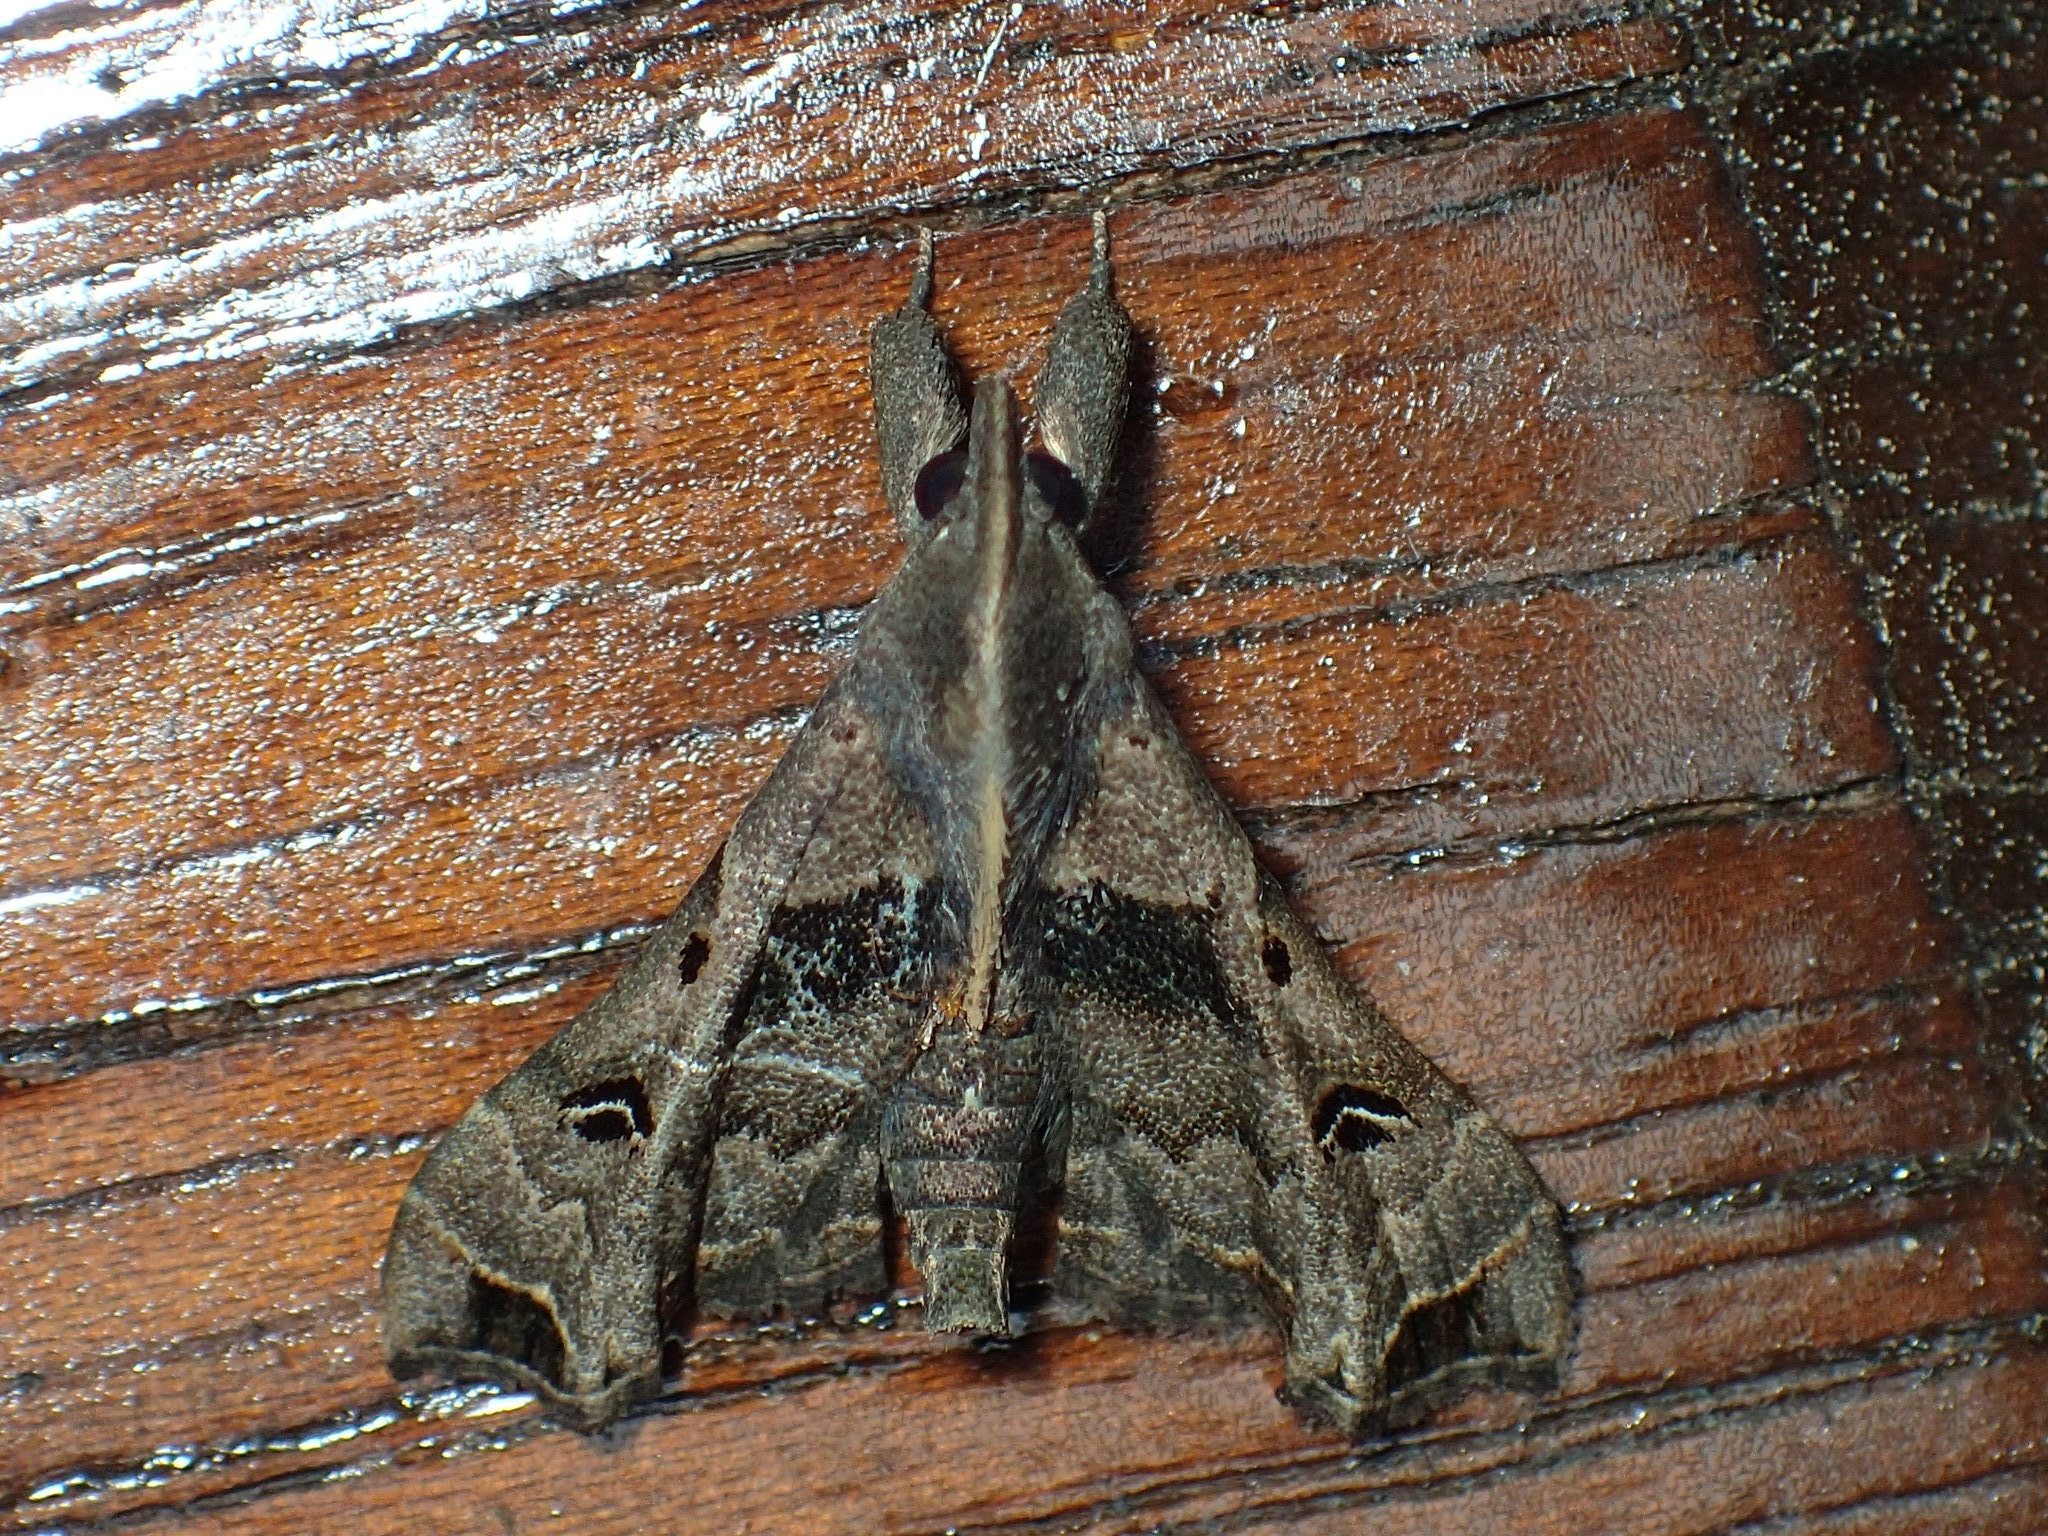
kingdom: Animalia
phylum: Arthropoda
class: Insecta
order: Lepidoptera
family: Erebidae
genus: Palthis
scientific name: Palthis asopialis
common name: Faint-spotted palthis moth
